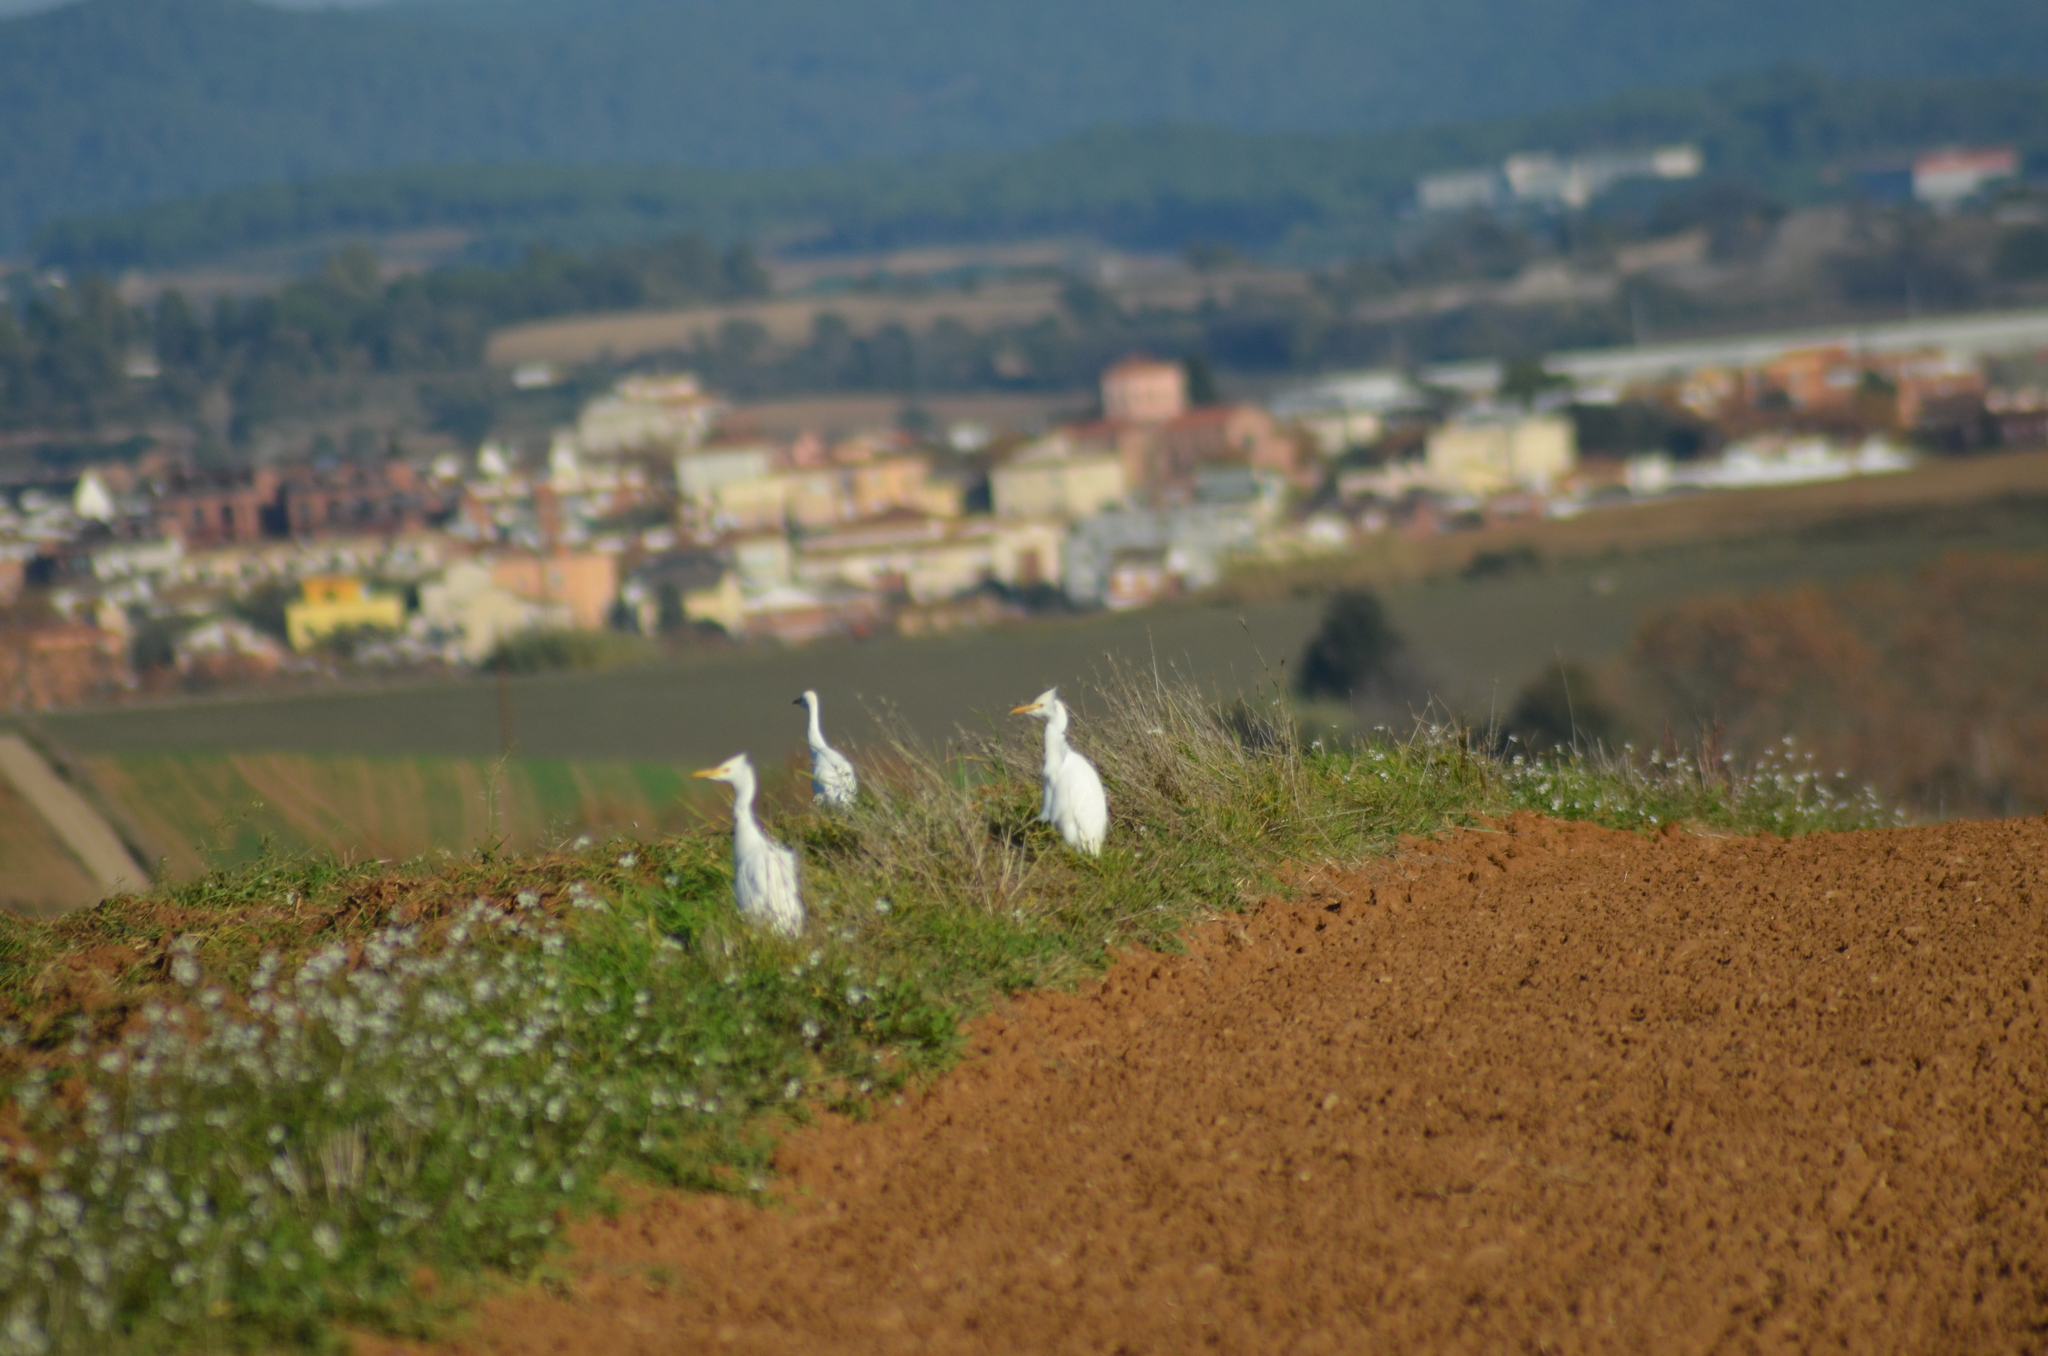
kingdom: Animalia
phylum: Chordata
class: Aves
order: Pelecaniformes
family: Ardeidae
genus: Bubulcus
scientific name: Bubulcus ibis
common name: Cattle egret
